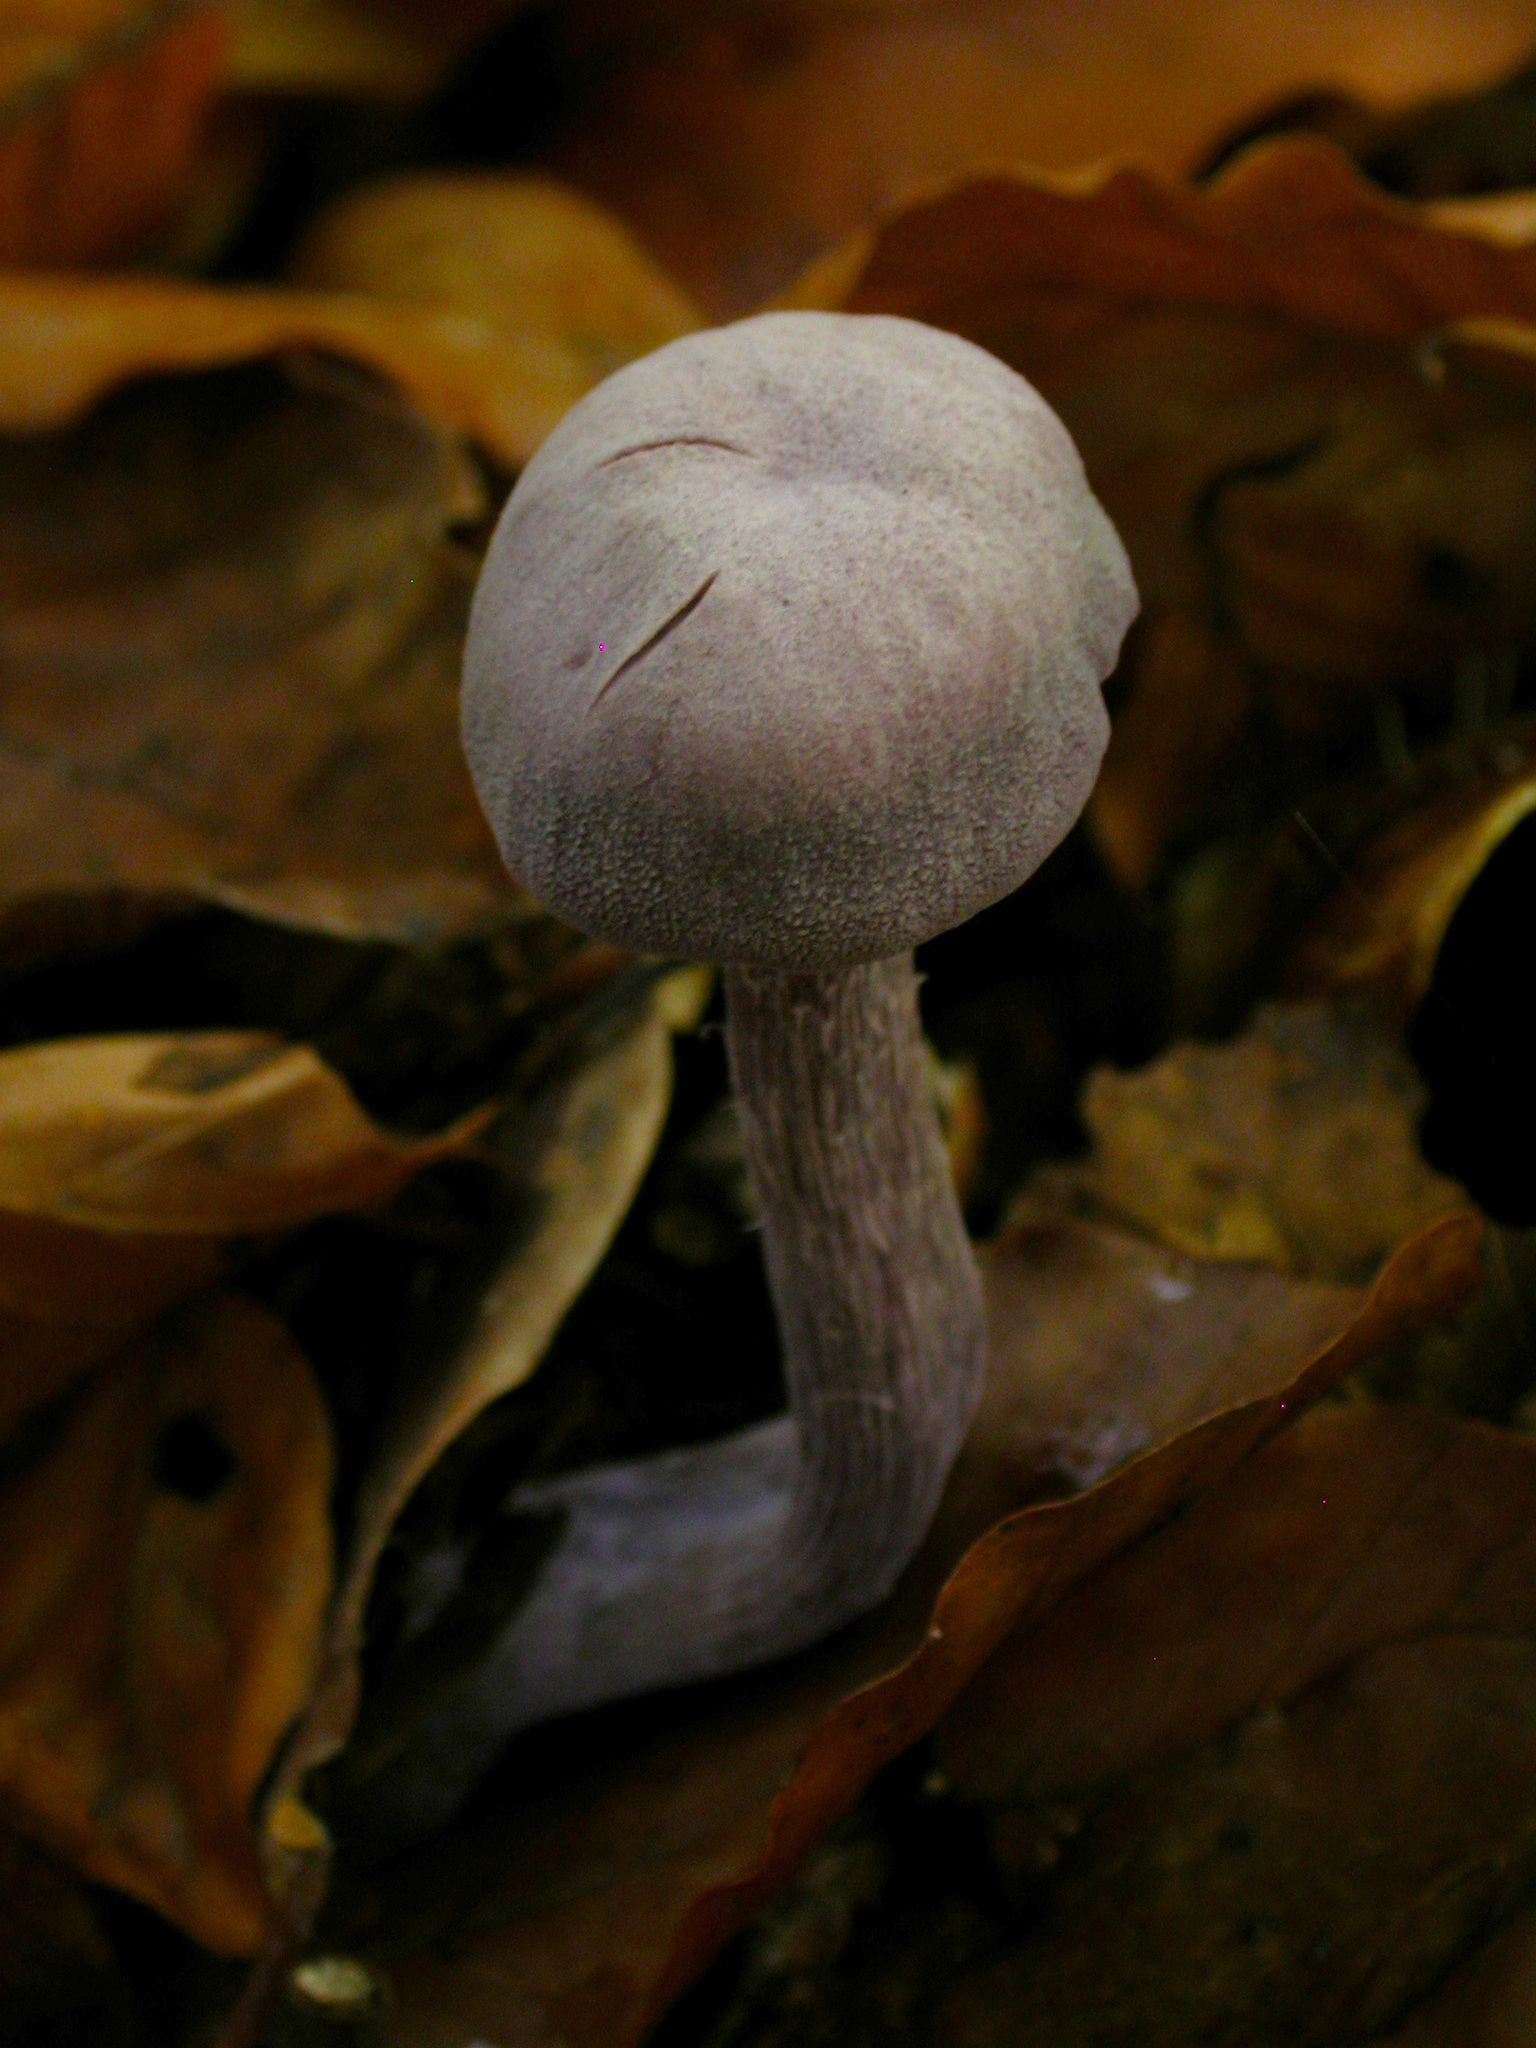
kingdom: Fungi
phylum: Basidiomycota
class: Agaricomycetes
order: Agaricales
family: Hydnangiaceae
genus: Laccaria
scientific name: Laccaria amethystina
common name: Amethyst deceiver
